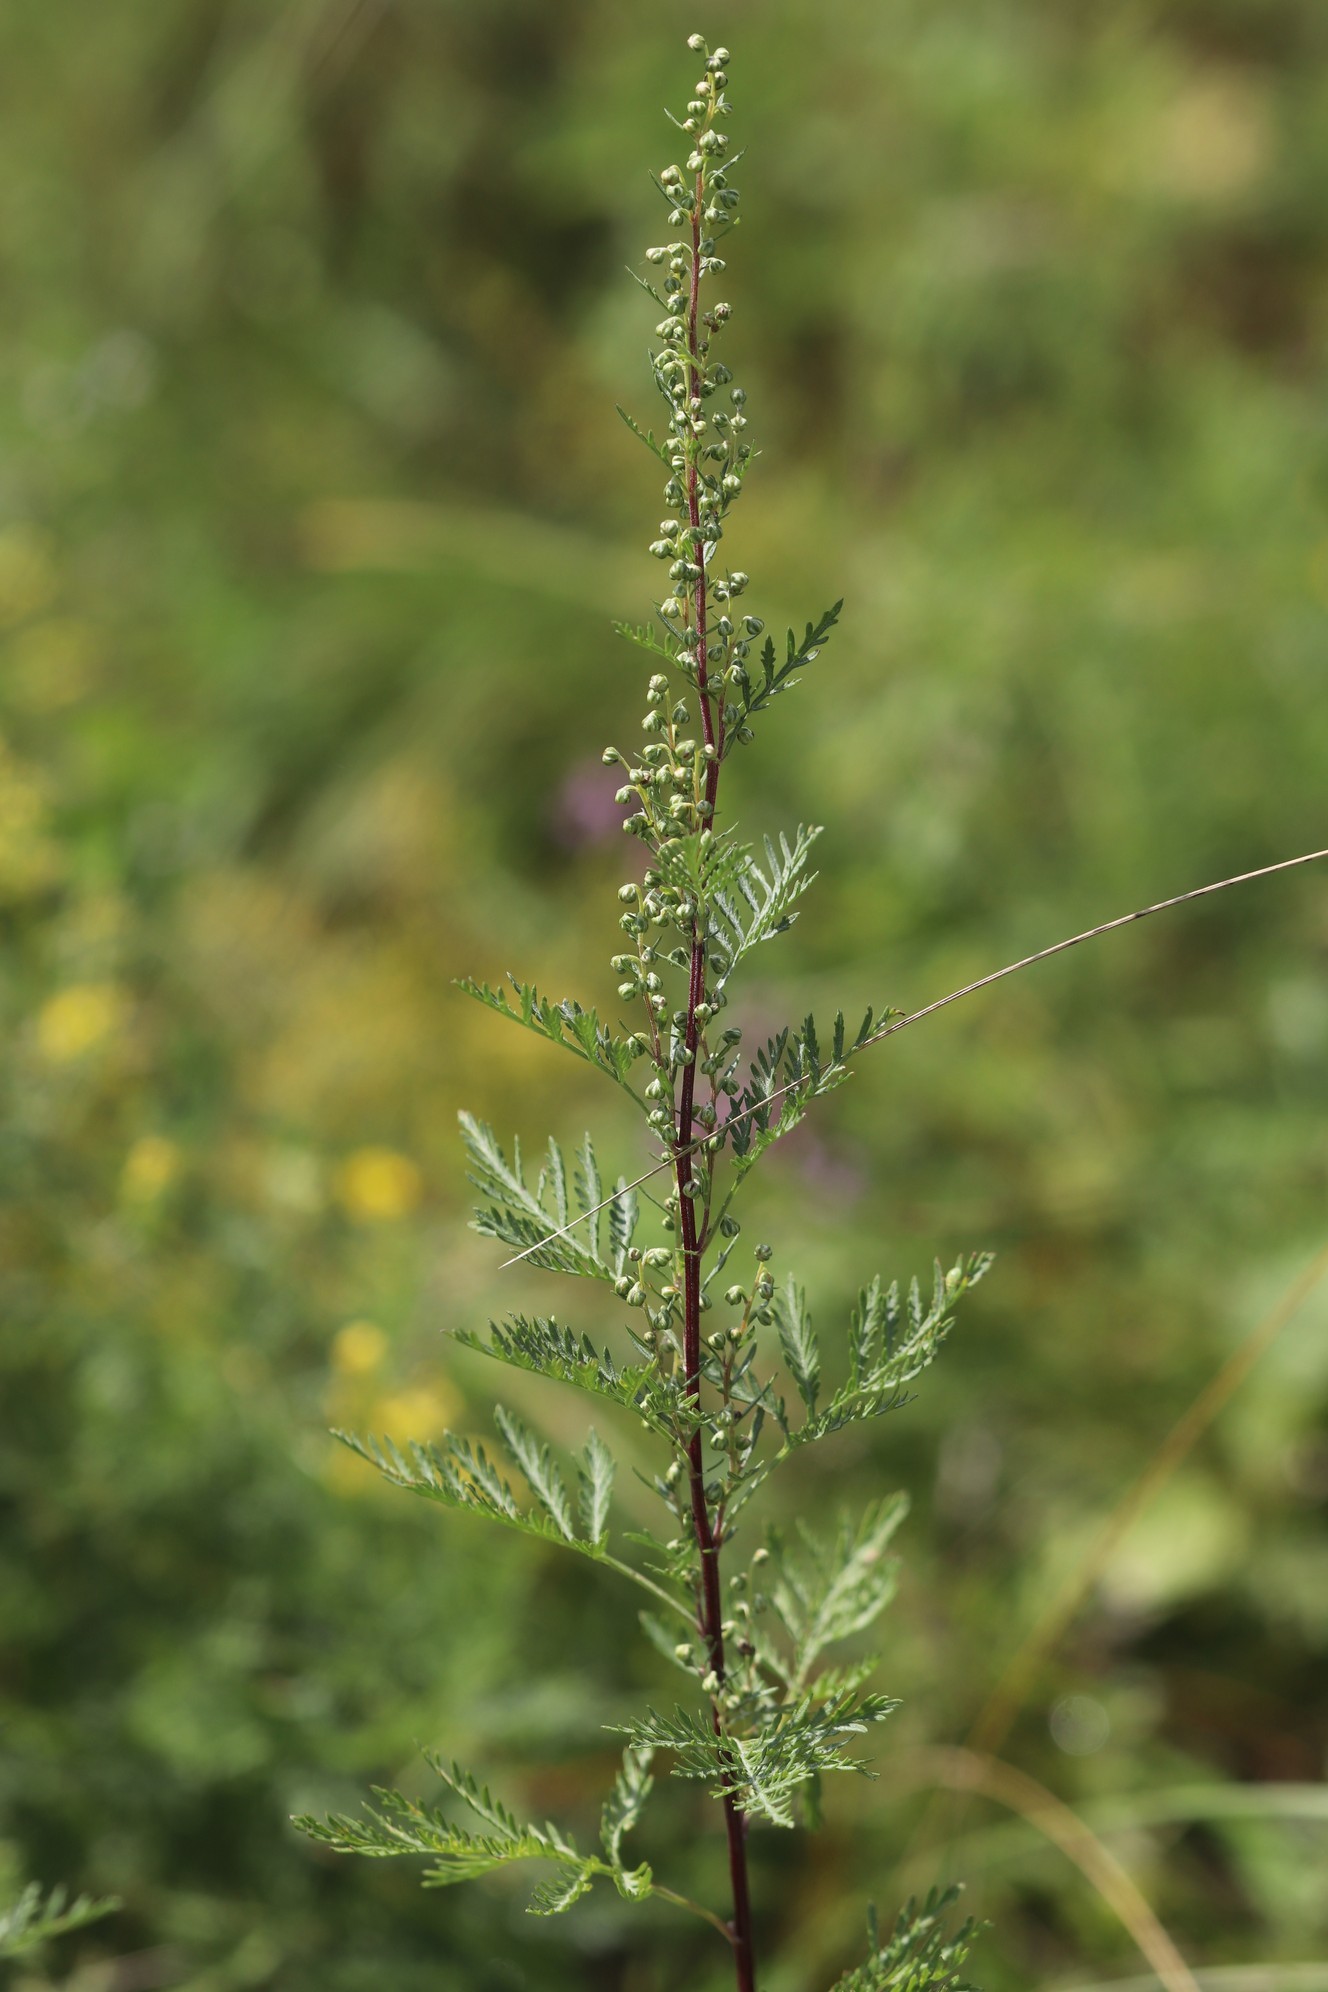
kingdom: Plantae
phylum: Tracheophyta
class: Magnoliopsida
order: Asterales
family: Asteraceae
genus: Artemisia
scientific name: Artemisia gmelinii
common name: Gmelin's wormwood
